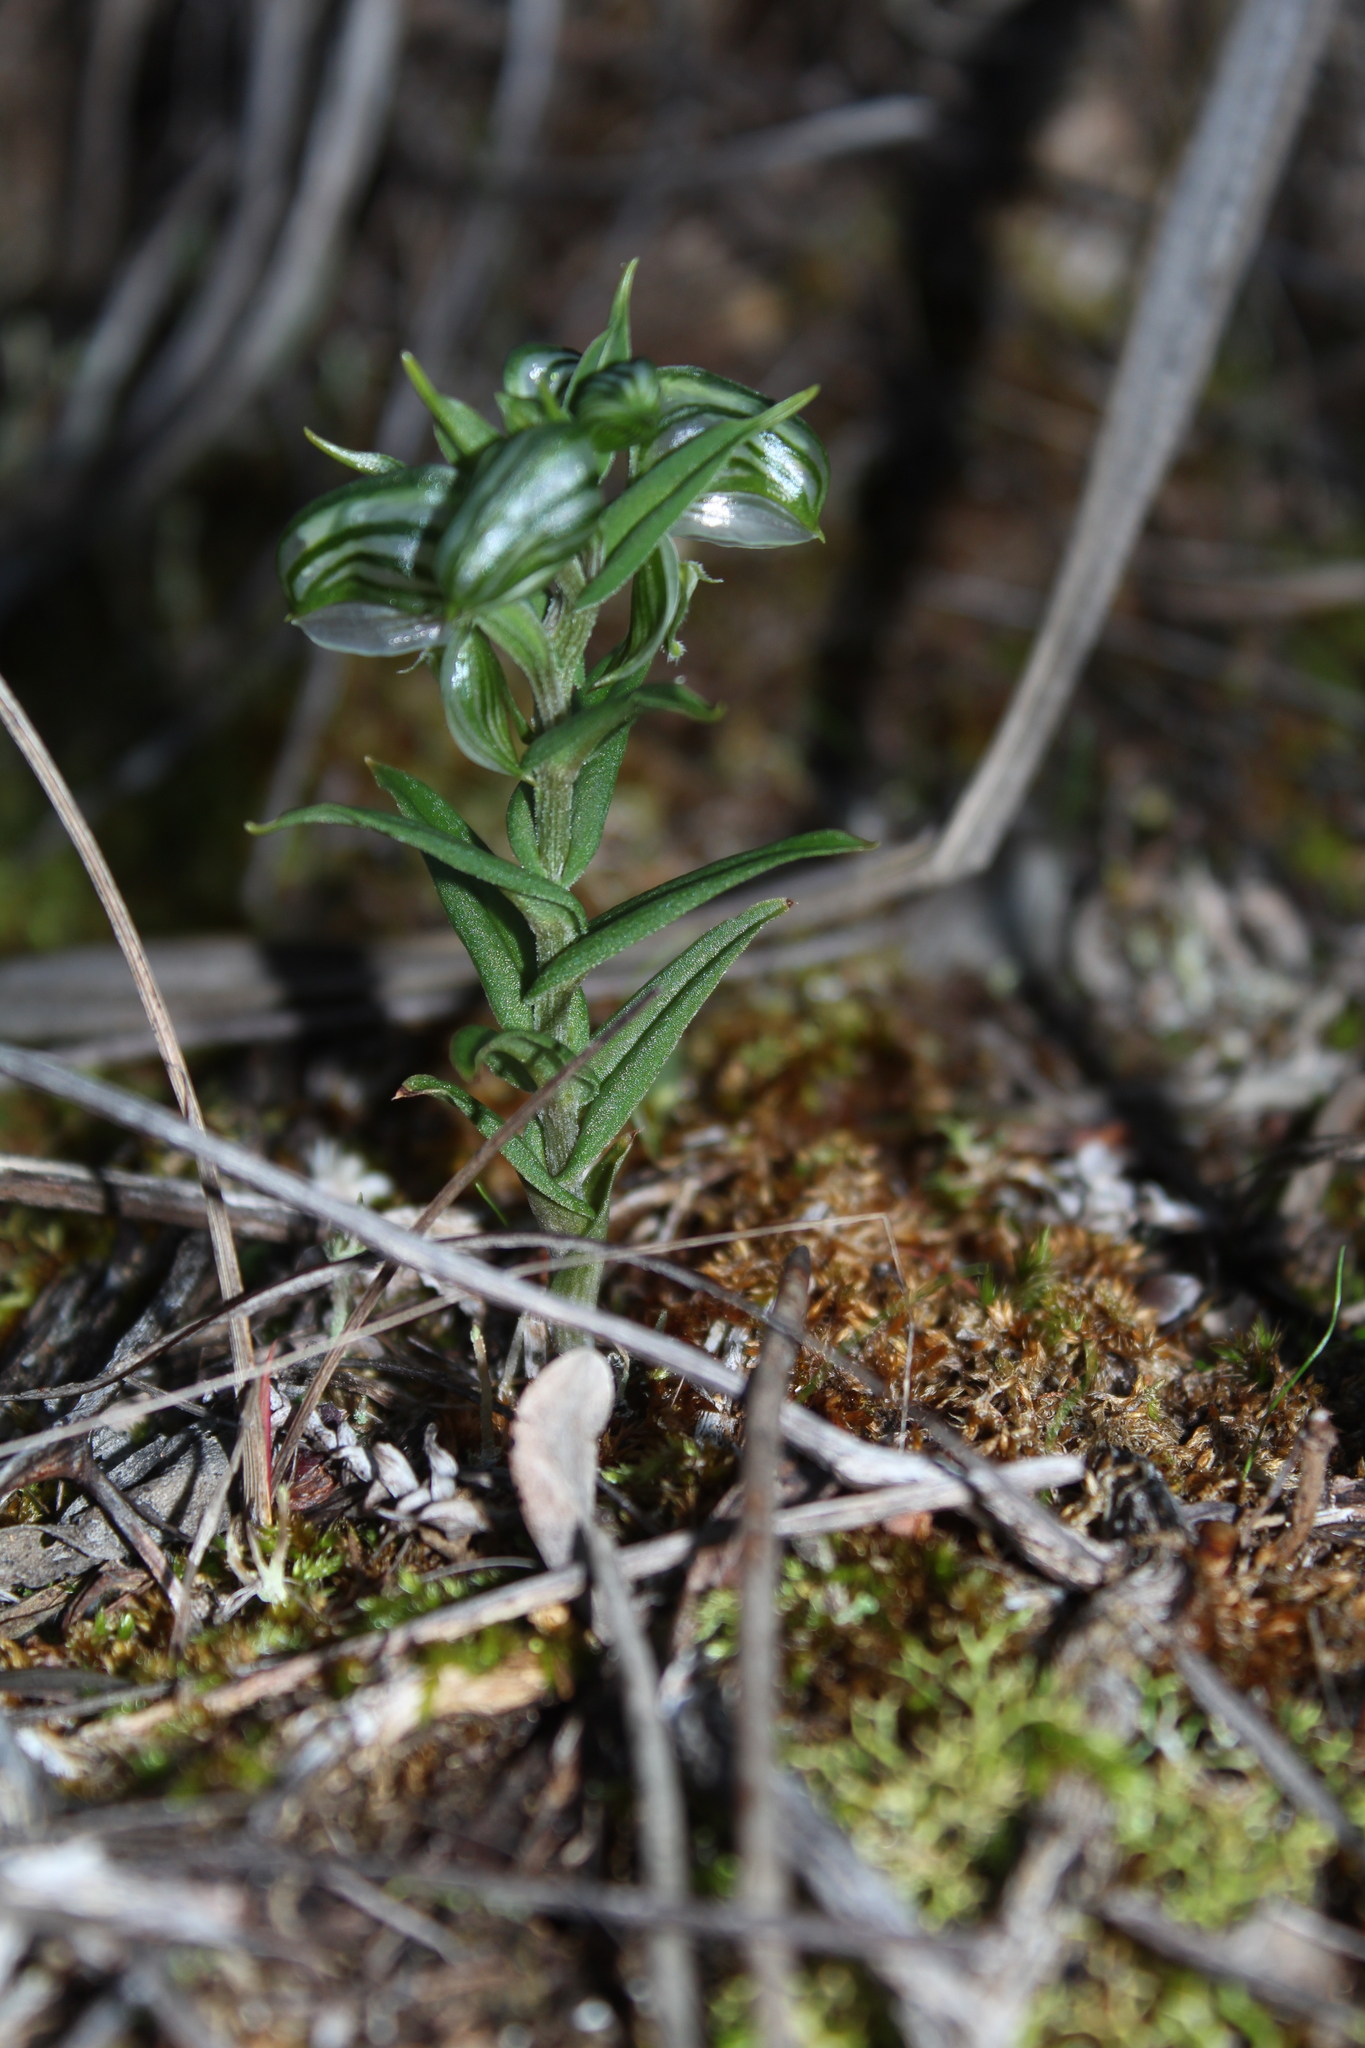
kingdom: Plantae
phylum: Tracheophyta
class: Liliopsida
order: Asparagales
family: Orchidaceae
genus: Pterostylis
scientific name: Pterostylis vittata
